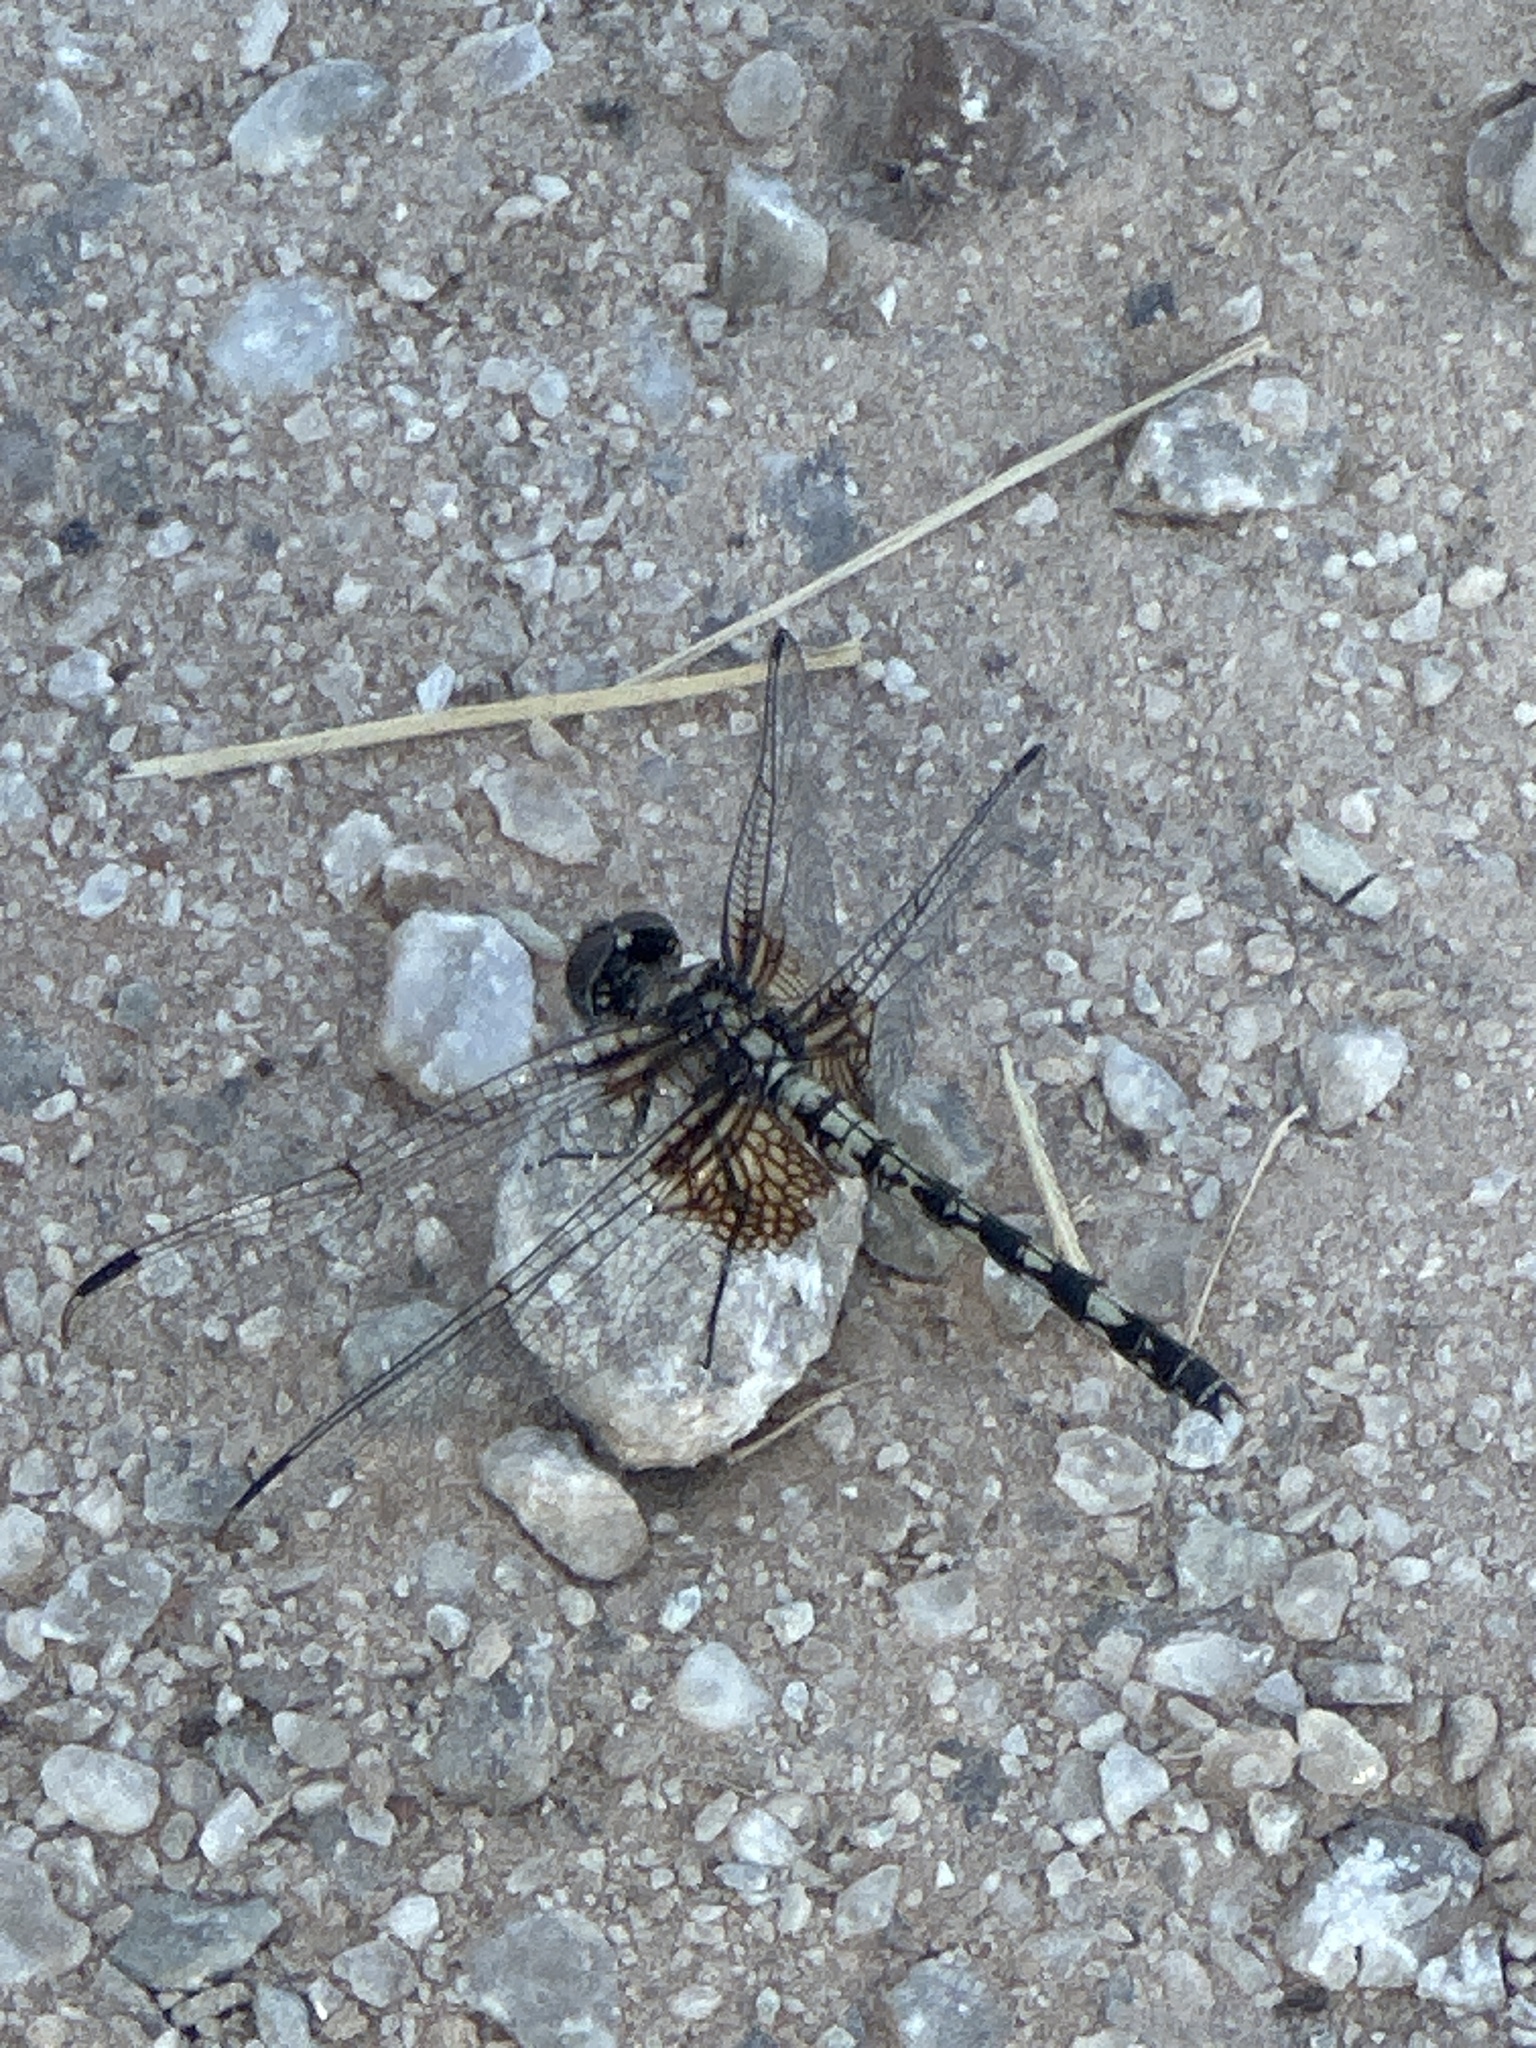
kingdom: Animalia
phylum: Arthropoda
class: Insecta
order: Odonata
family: Libellulidae
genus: Dythemis
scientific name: Dythemis fugax
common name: Checkered setwing
